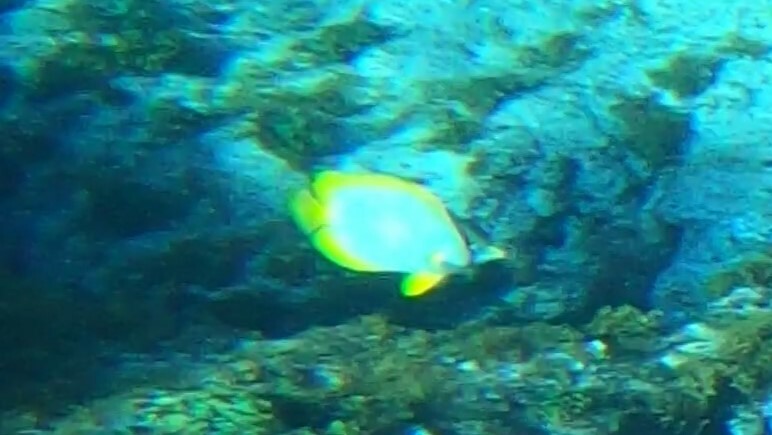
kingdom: Animalia
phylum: Chordata
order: Perciformes
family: Chaetodontidae
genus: Chaetodon
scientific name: Chaetodon ocellatus
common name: Spotfin butterflyfish
